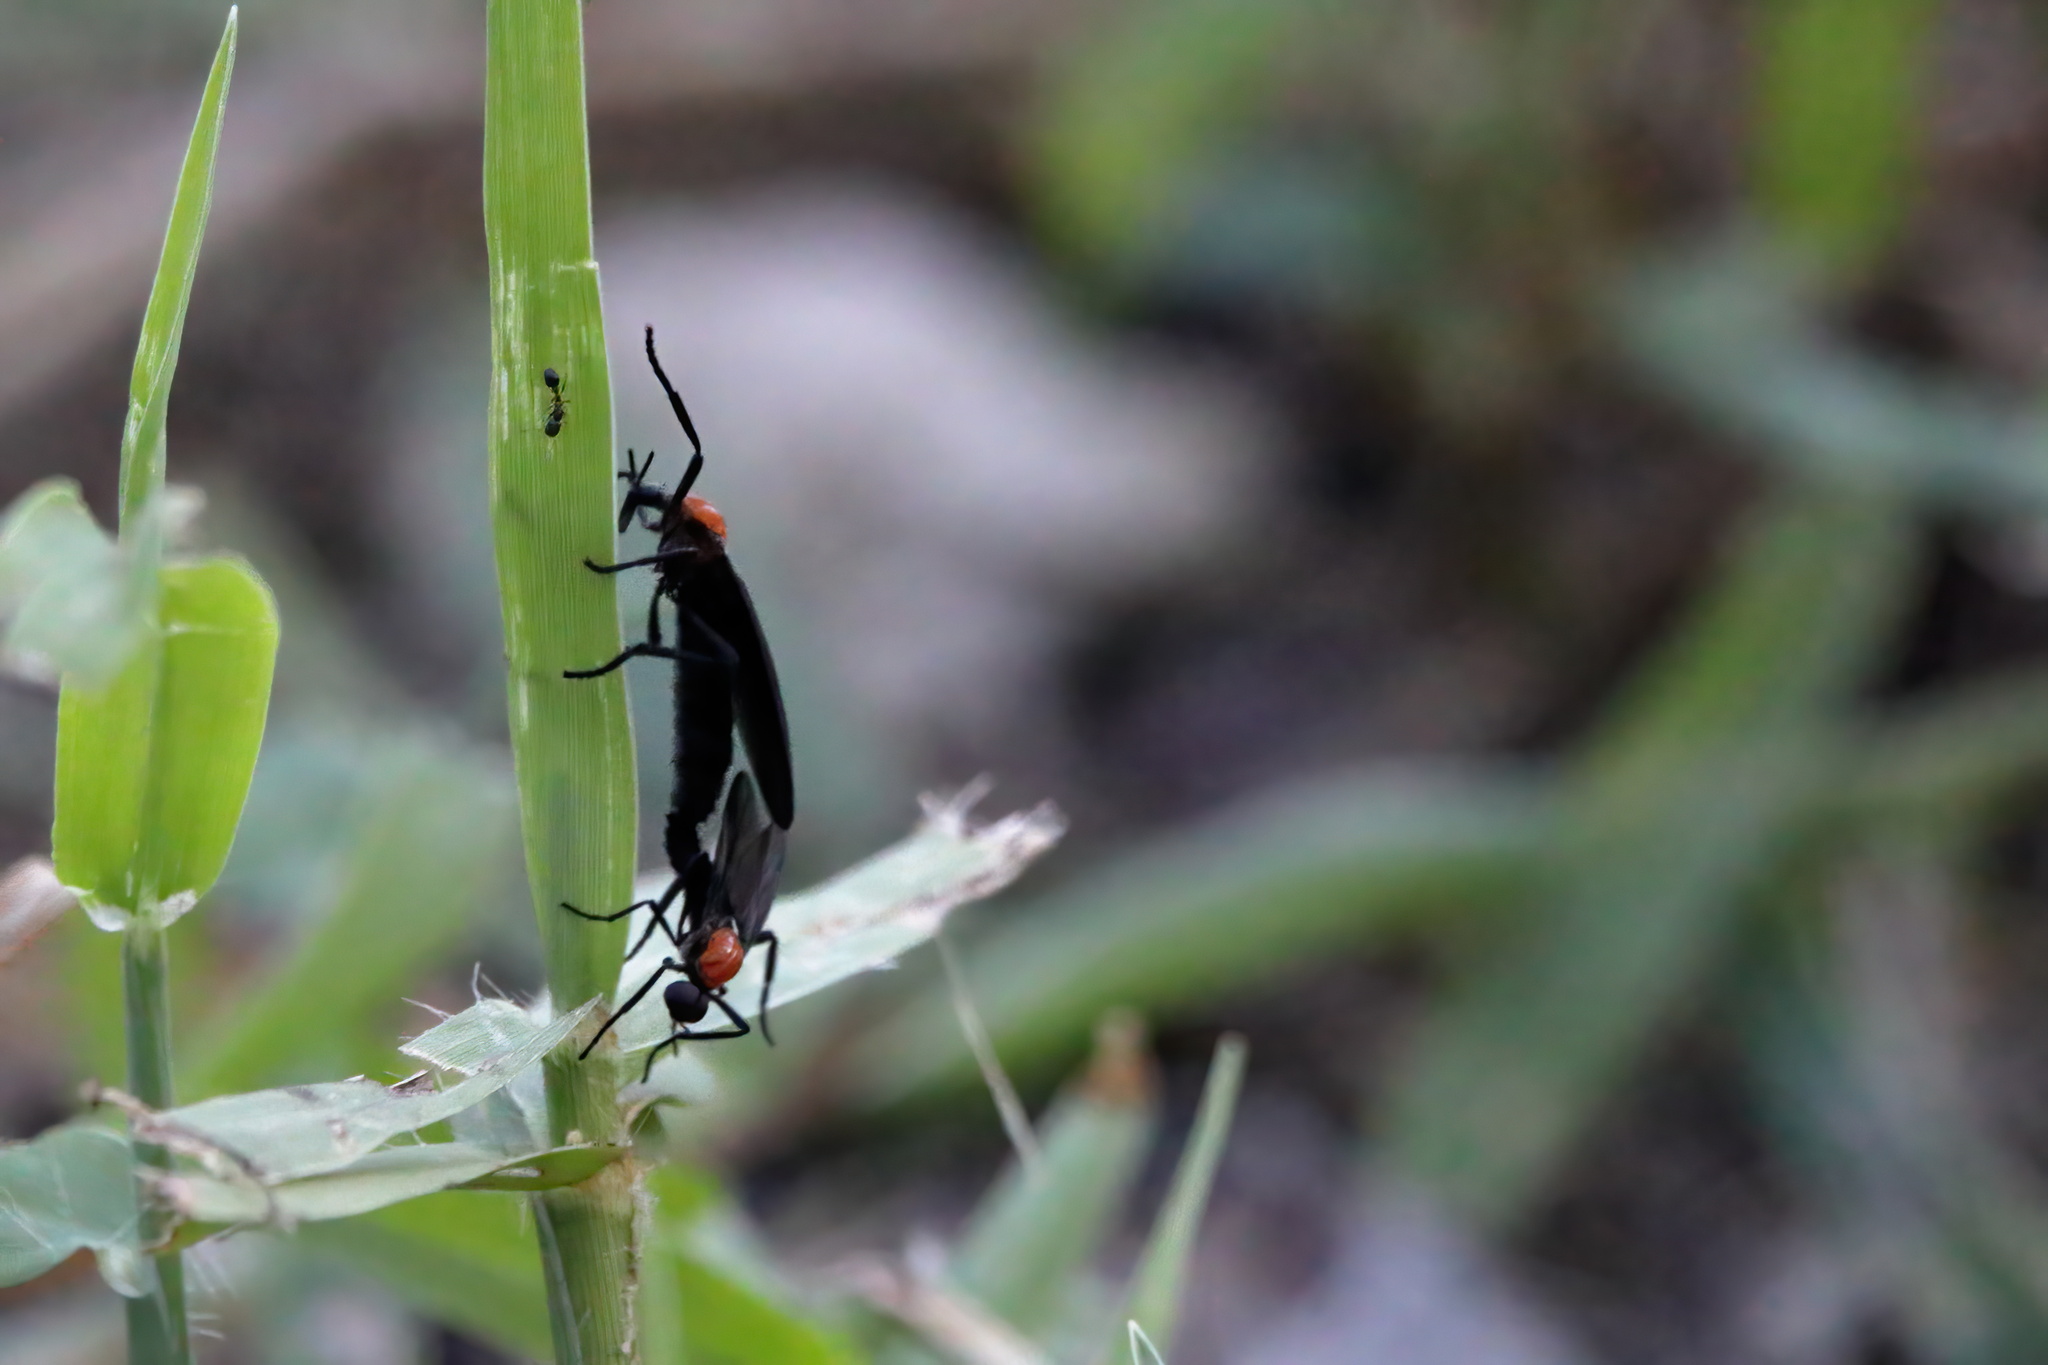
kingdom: Animalia
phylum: Arthropoda
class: Insecta
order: Diptera
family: Bibionidae
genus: Plecia
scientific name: Plecia nearctica
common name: March fly
